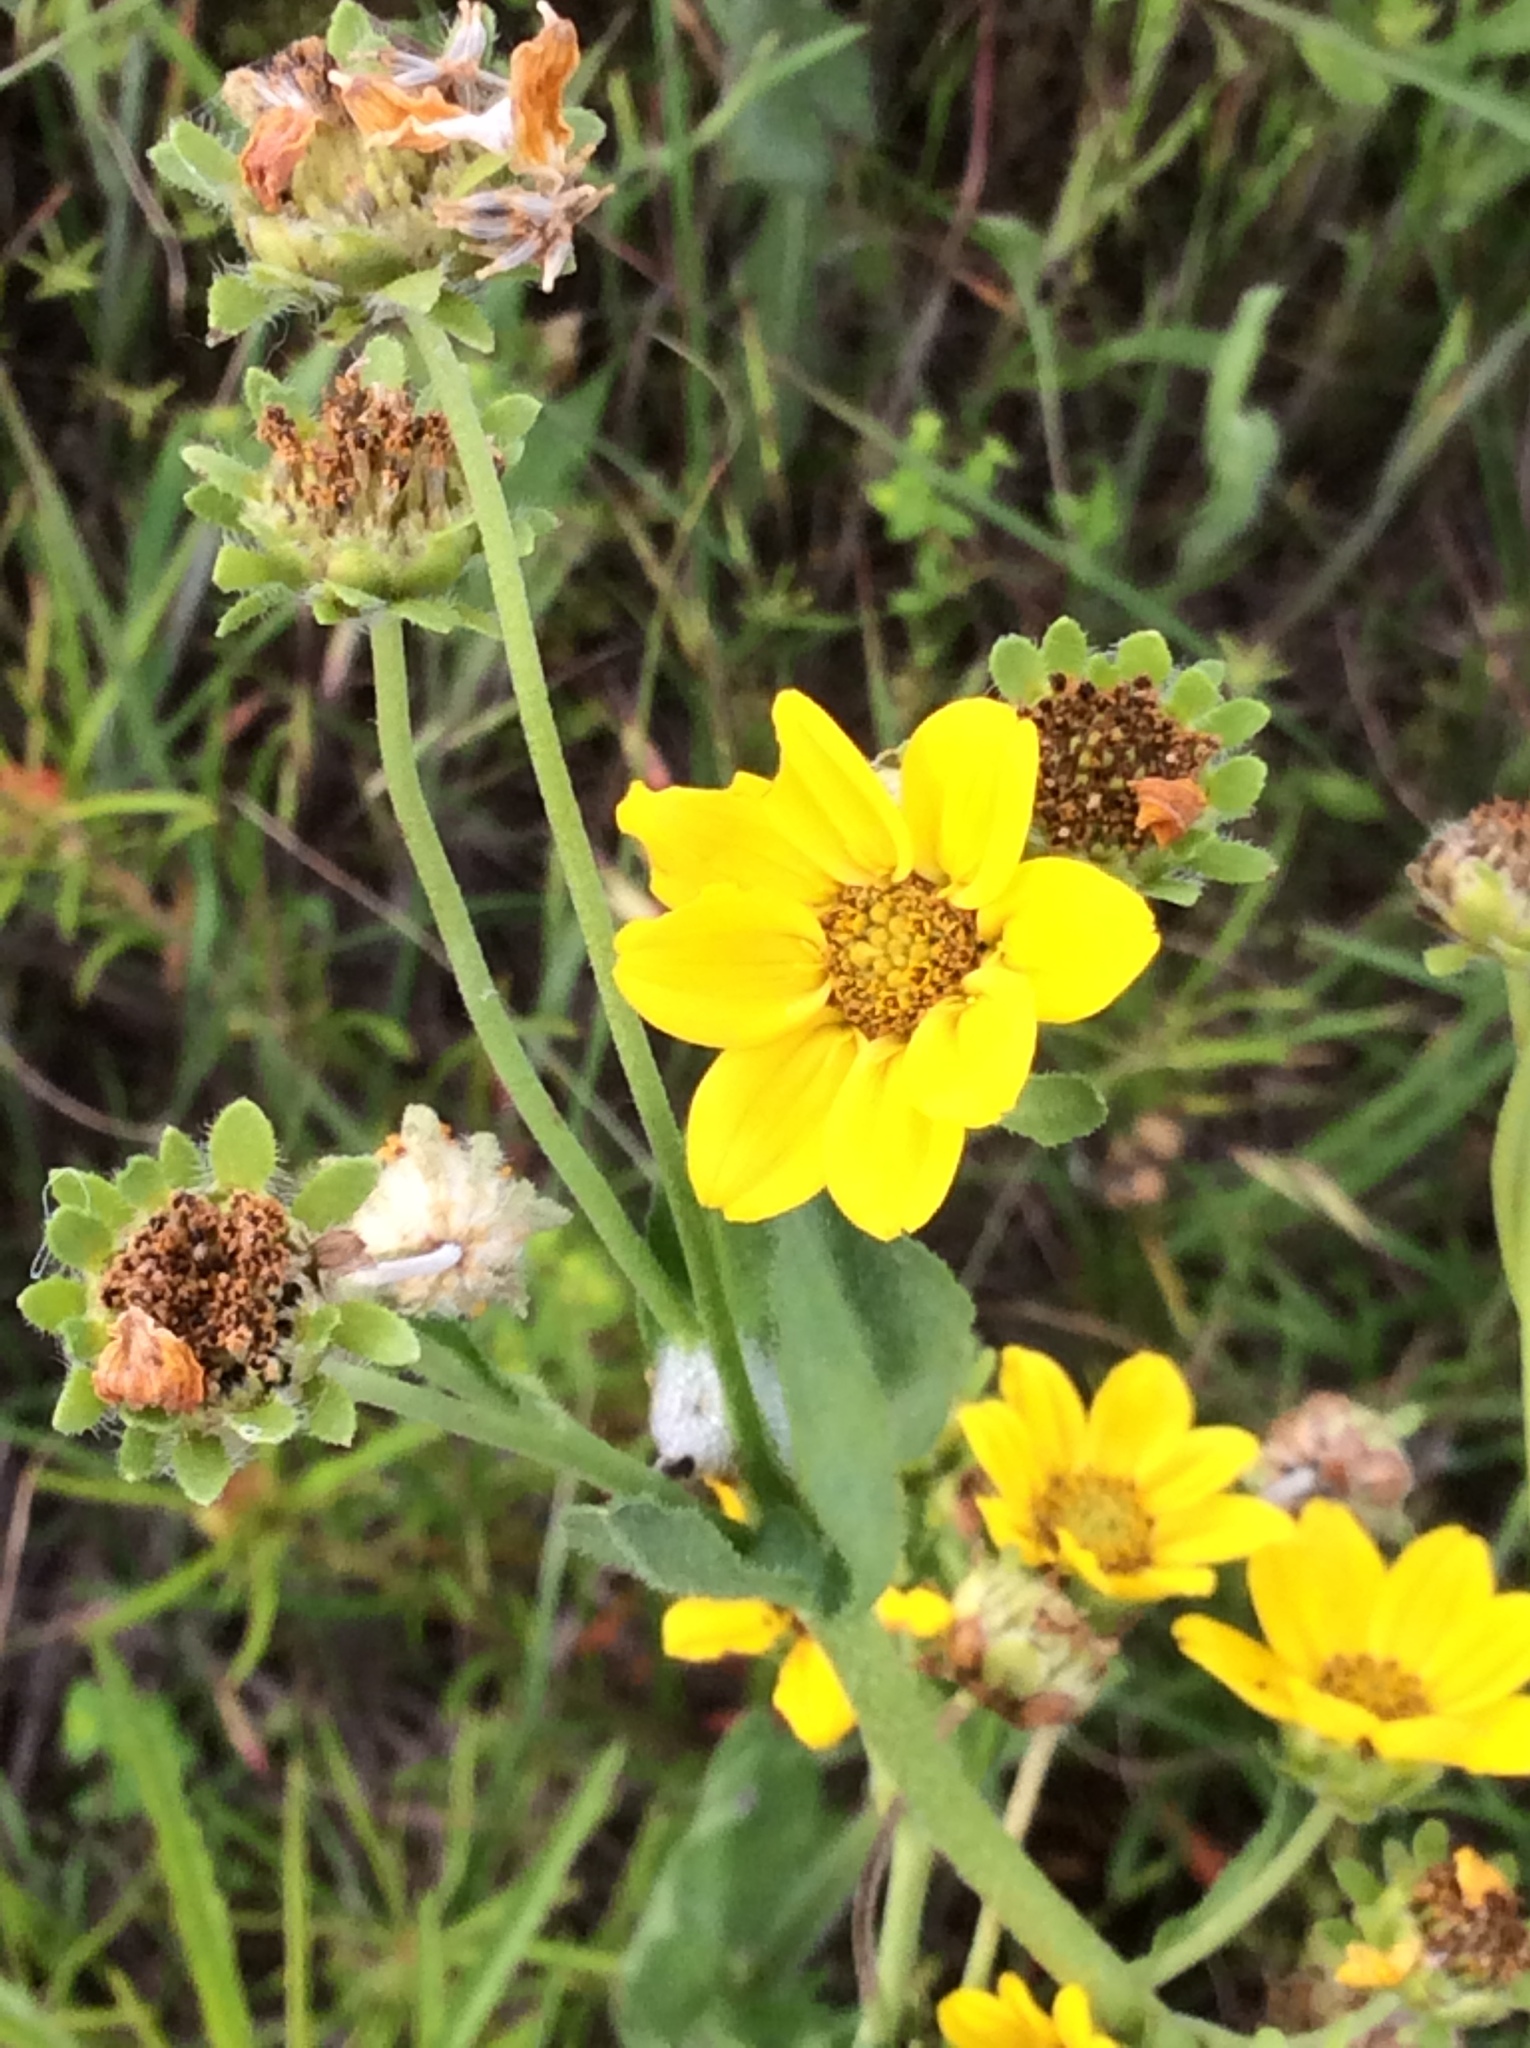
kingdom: Plantae
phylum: Tracheophyta
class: Magnoliopsida
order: Asterales
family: Asteraceae
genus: Engelmannia
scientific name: Engelmannia peristenia
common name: Engelmann's daisy
